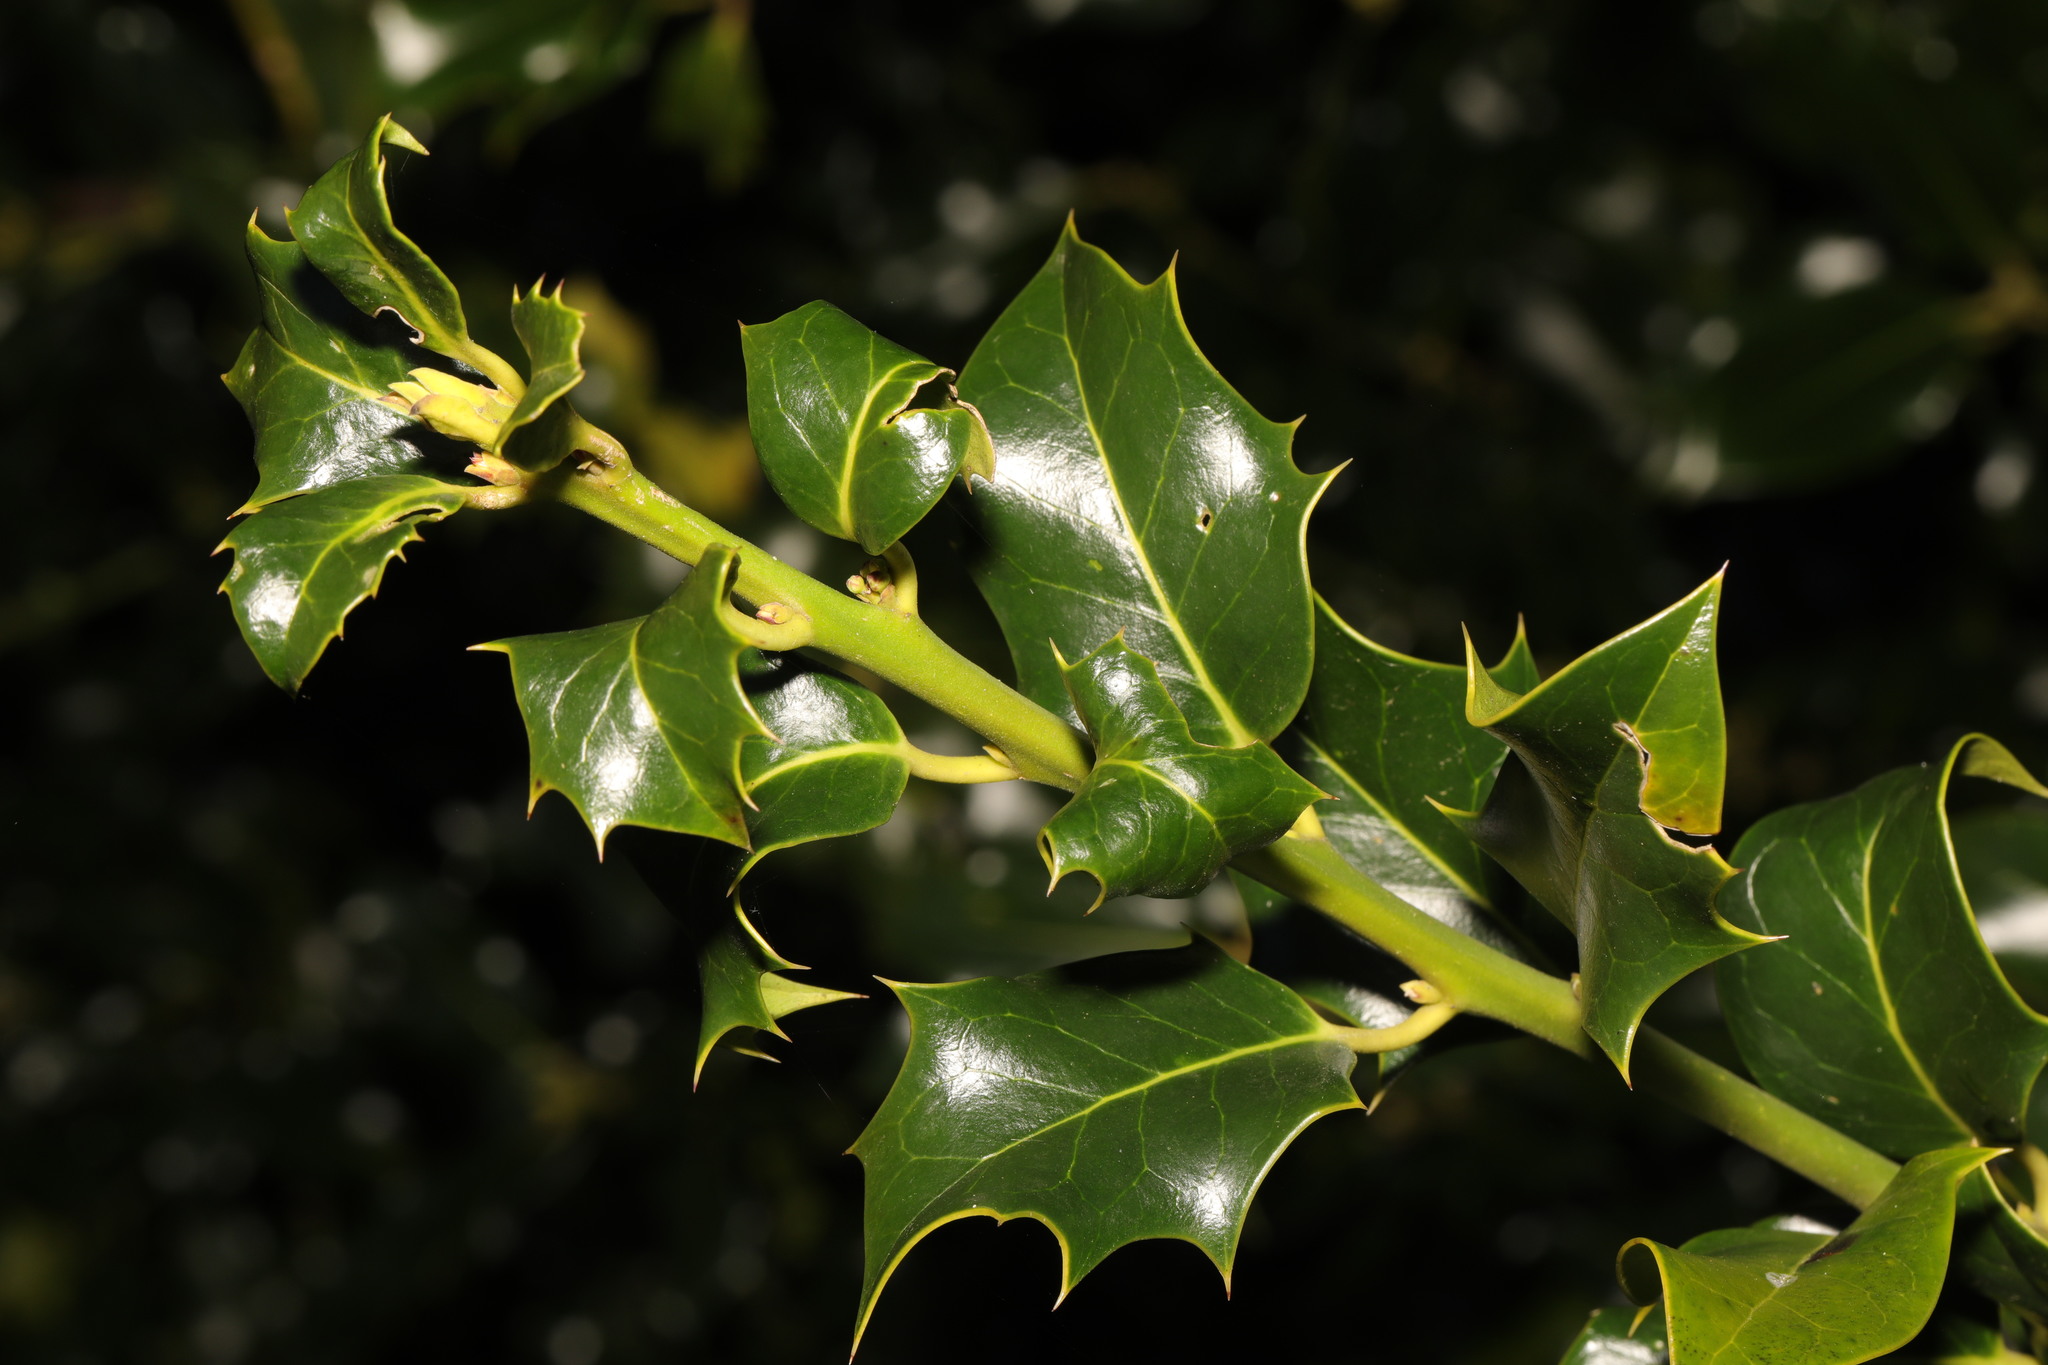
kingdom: Plantae
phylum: Tracheophyta
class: Magnoliopsida
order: Aquifoliales
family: Aquifoliaceae
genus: Ilex
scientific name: Ilex aquifolium
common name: English holly
